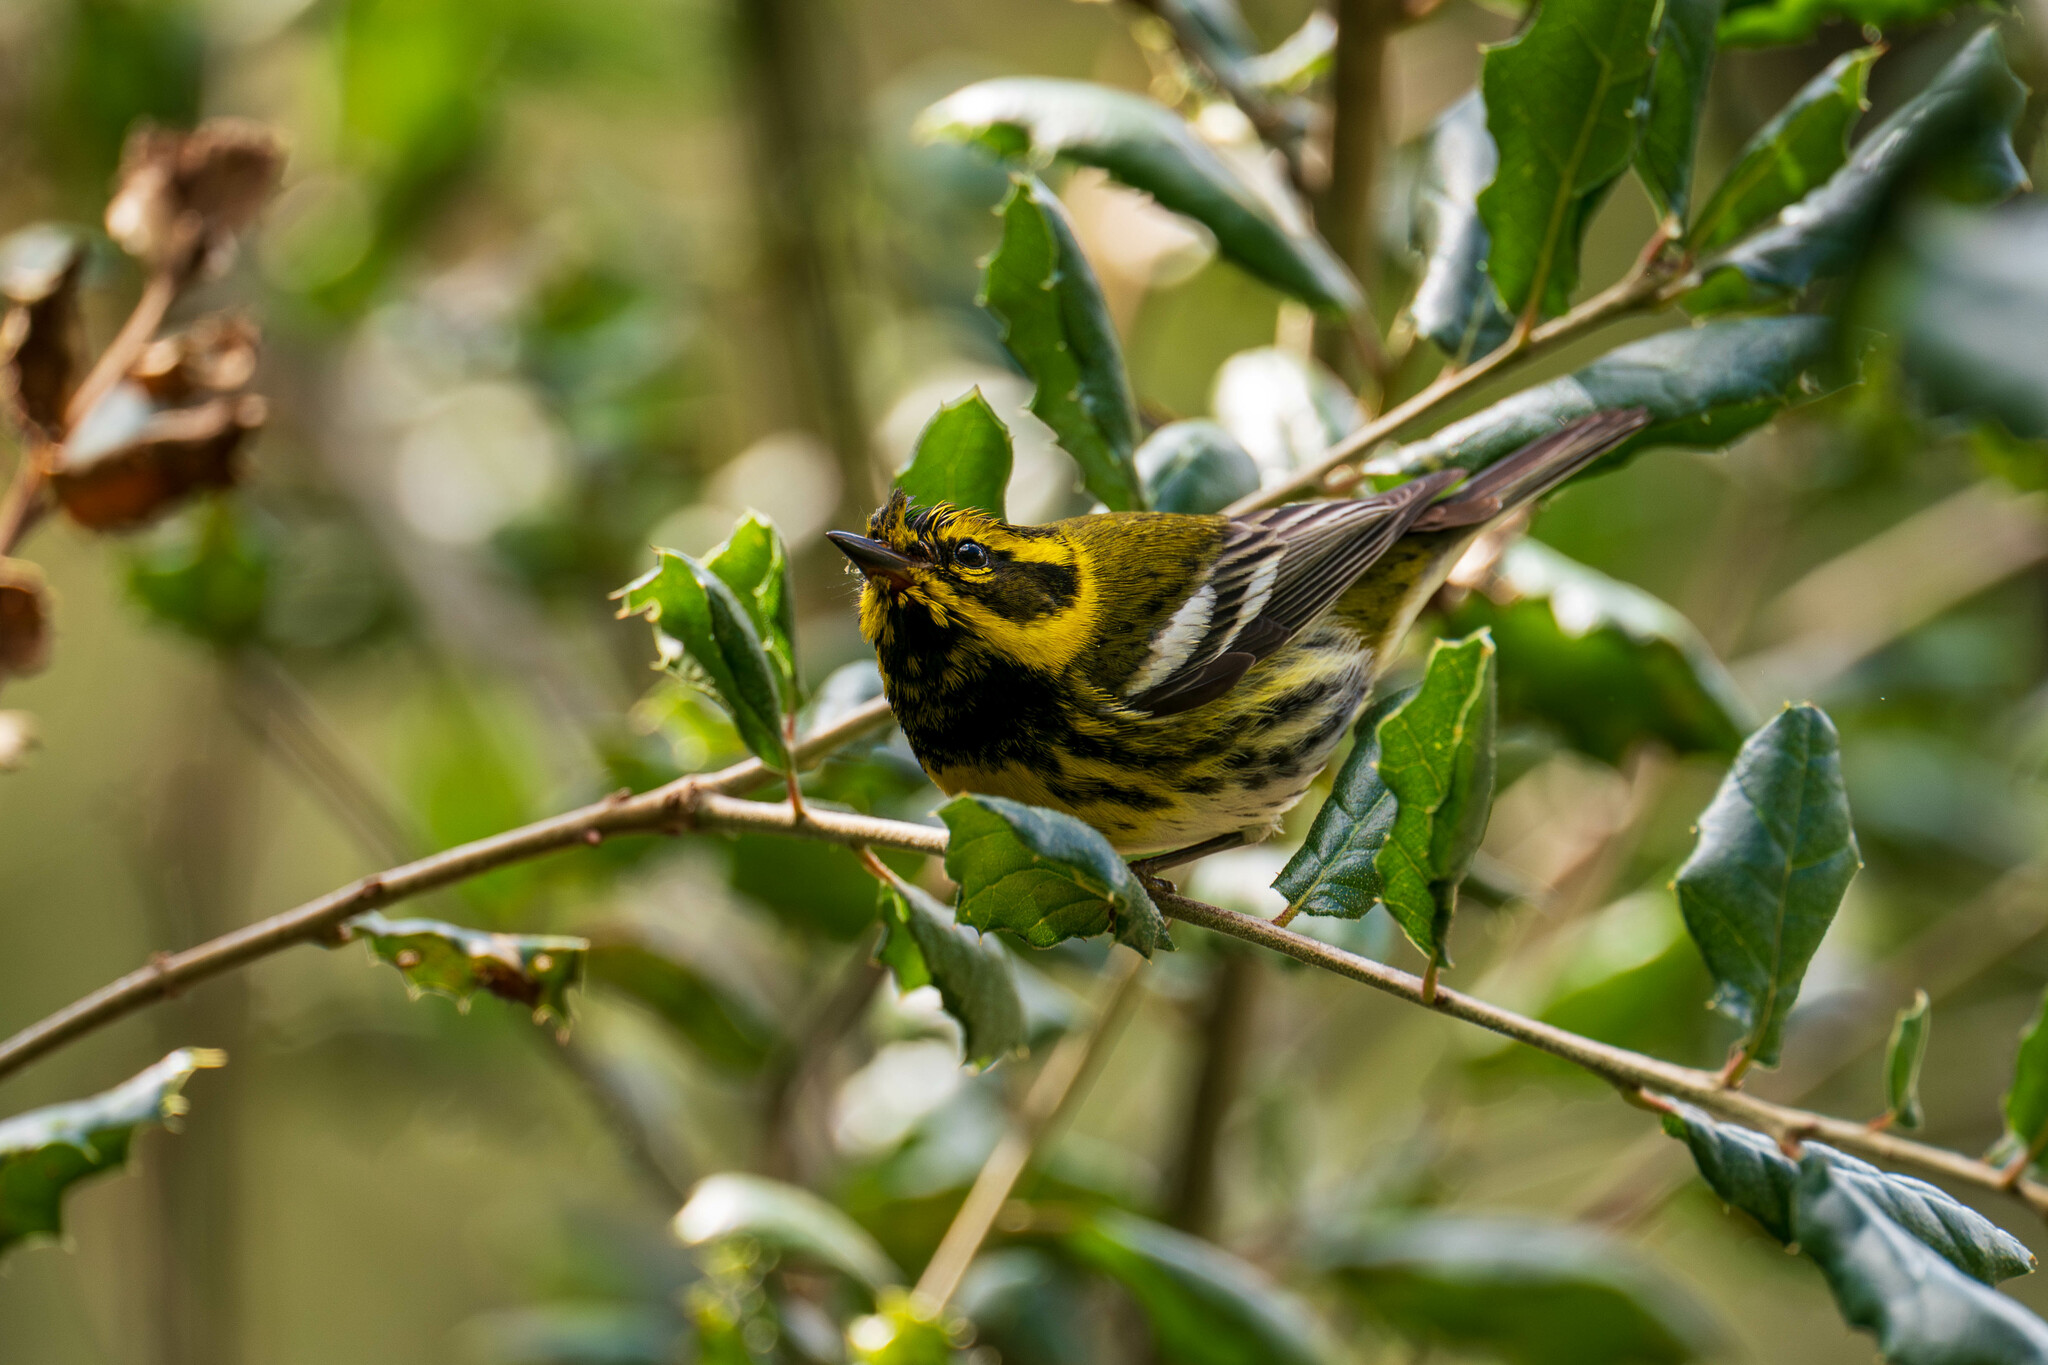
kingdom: Animalia
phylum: Chordata
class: Aves
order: Passeriformes
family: Parulidae
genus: Setophaga
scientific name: Setophaga townsendi
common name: Townsend's warbler
